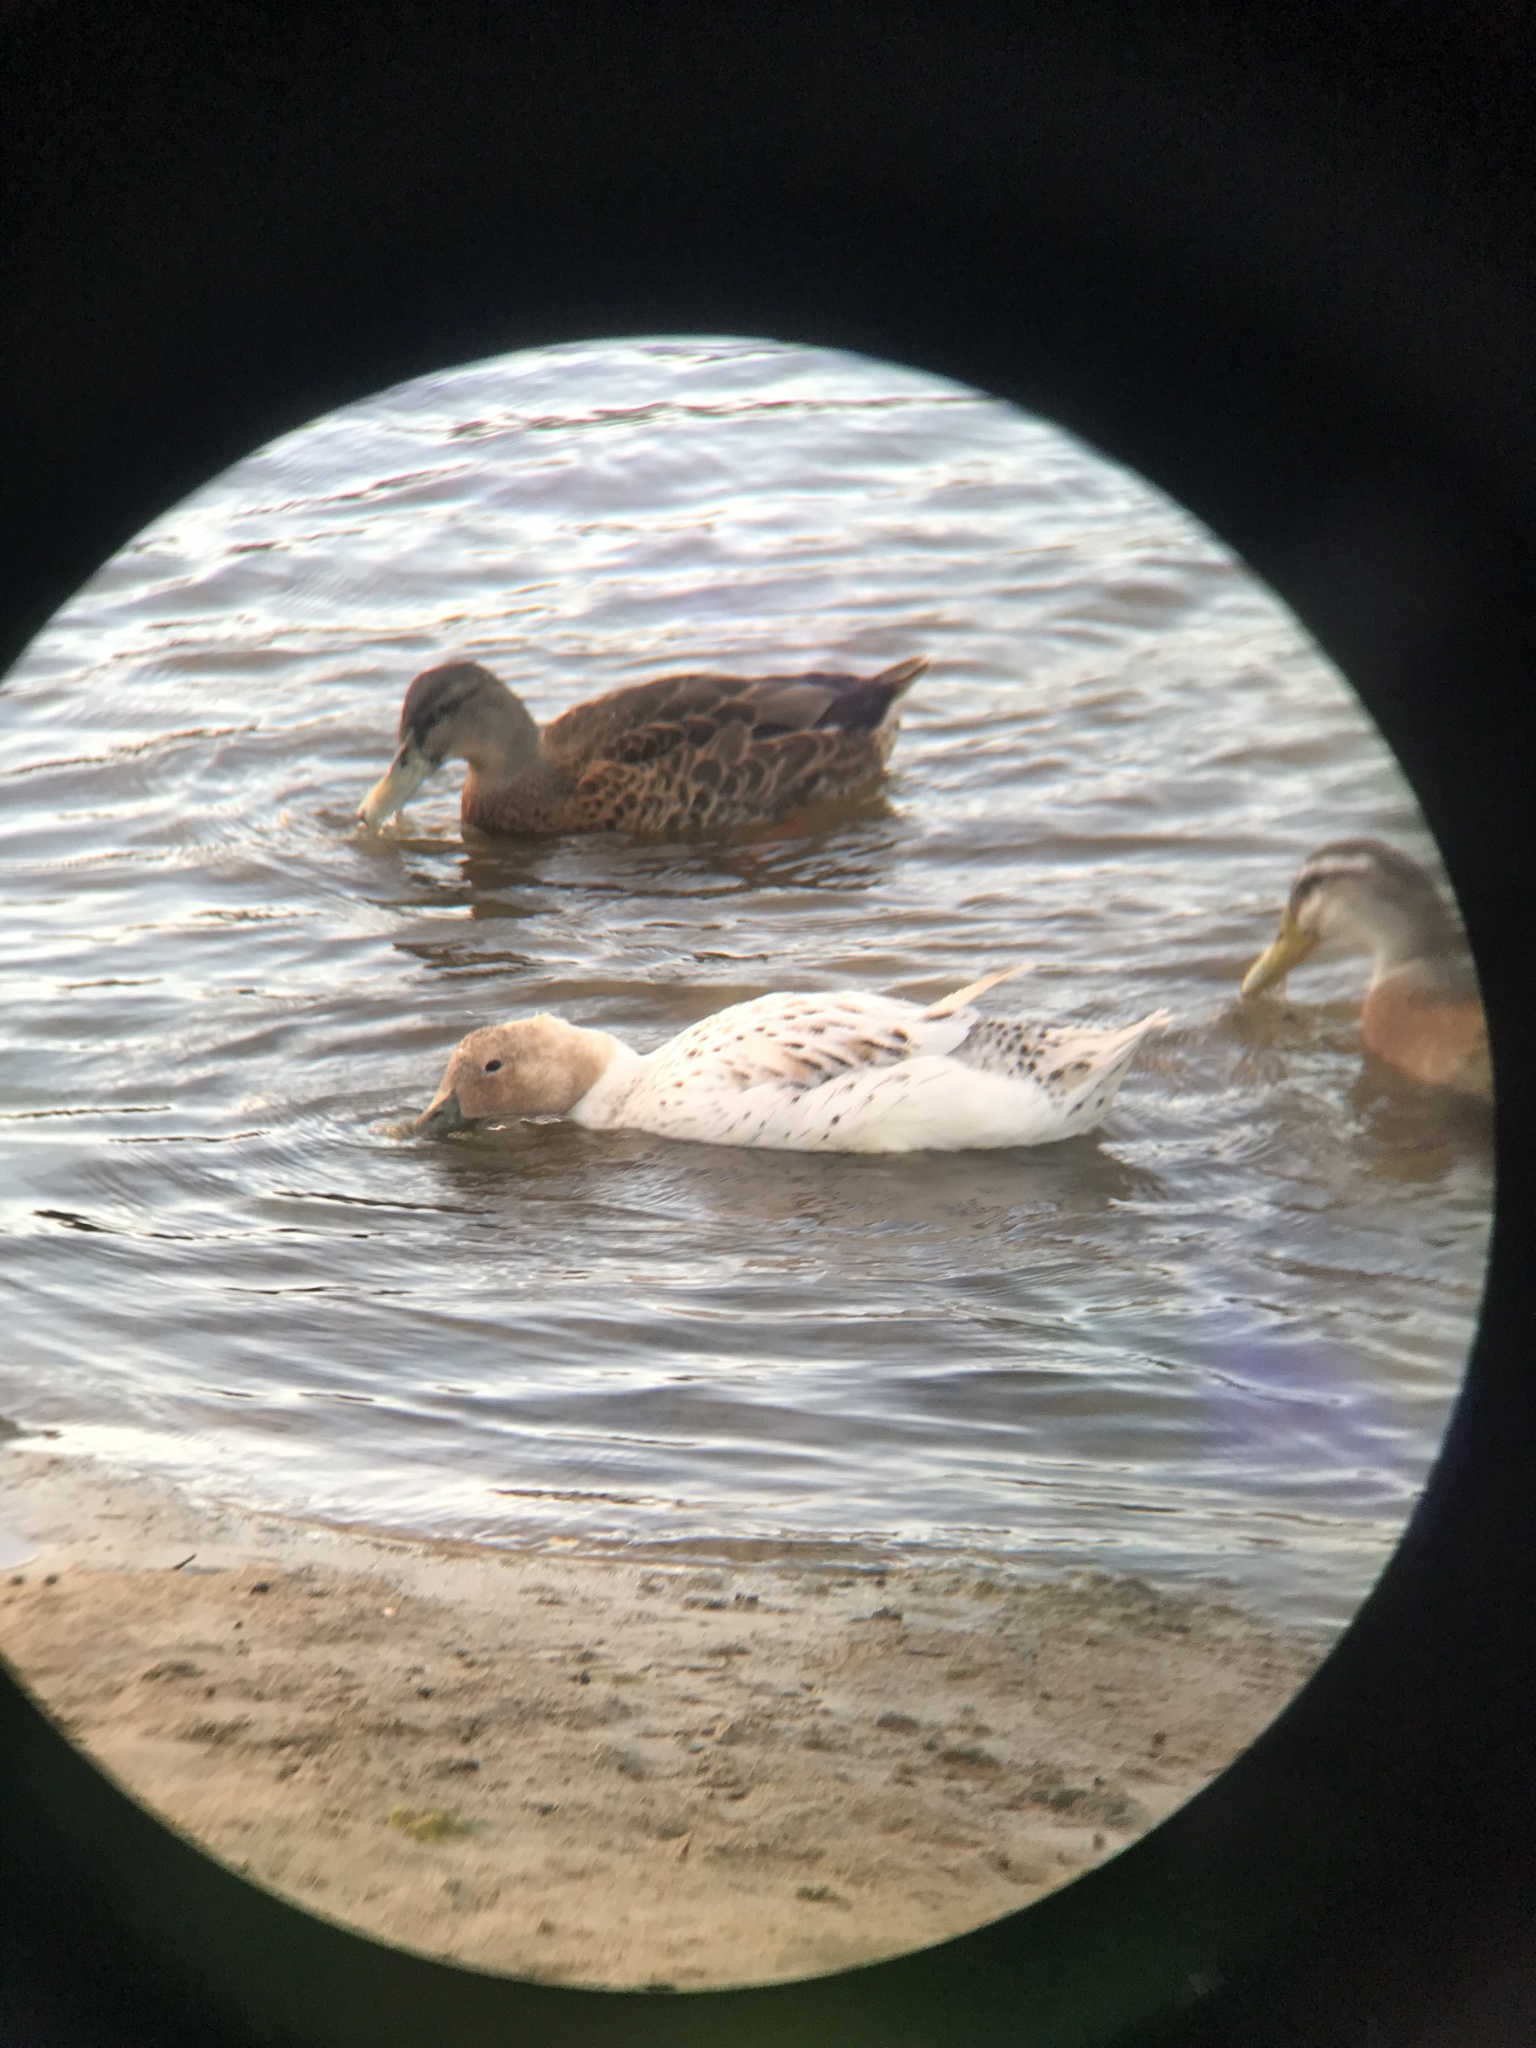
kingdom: Animalia
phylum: Chordata
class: Aves
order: Anseriformes
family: Anatidae
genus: Anas
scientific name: Anas platyrhynchos
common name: Mallard
